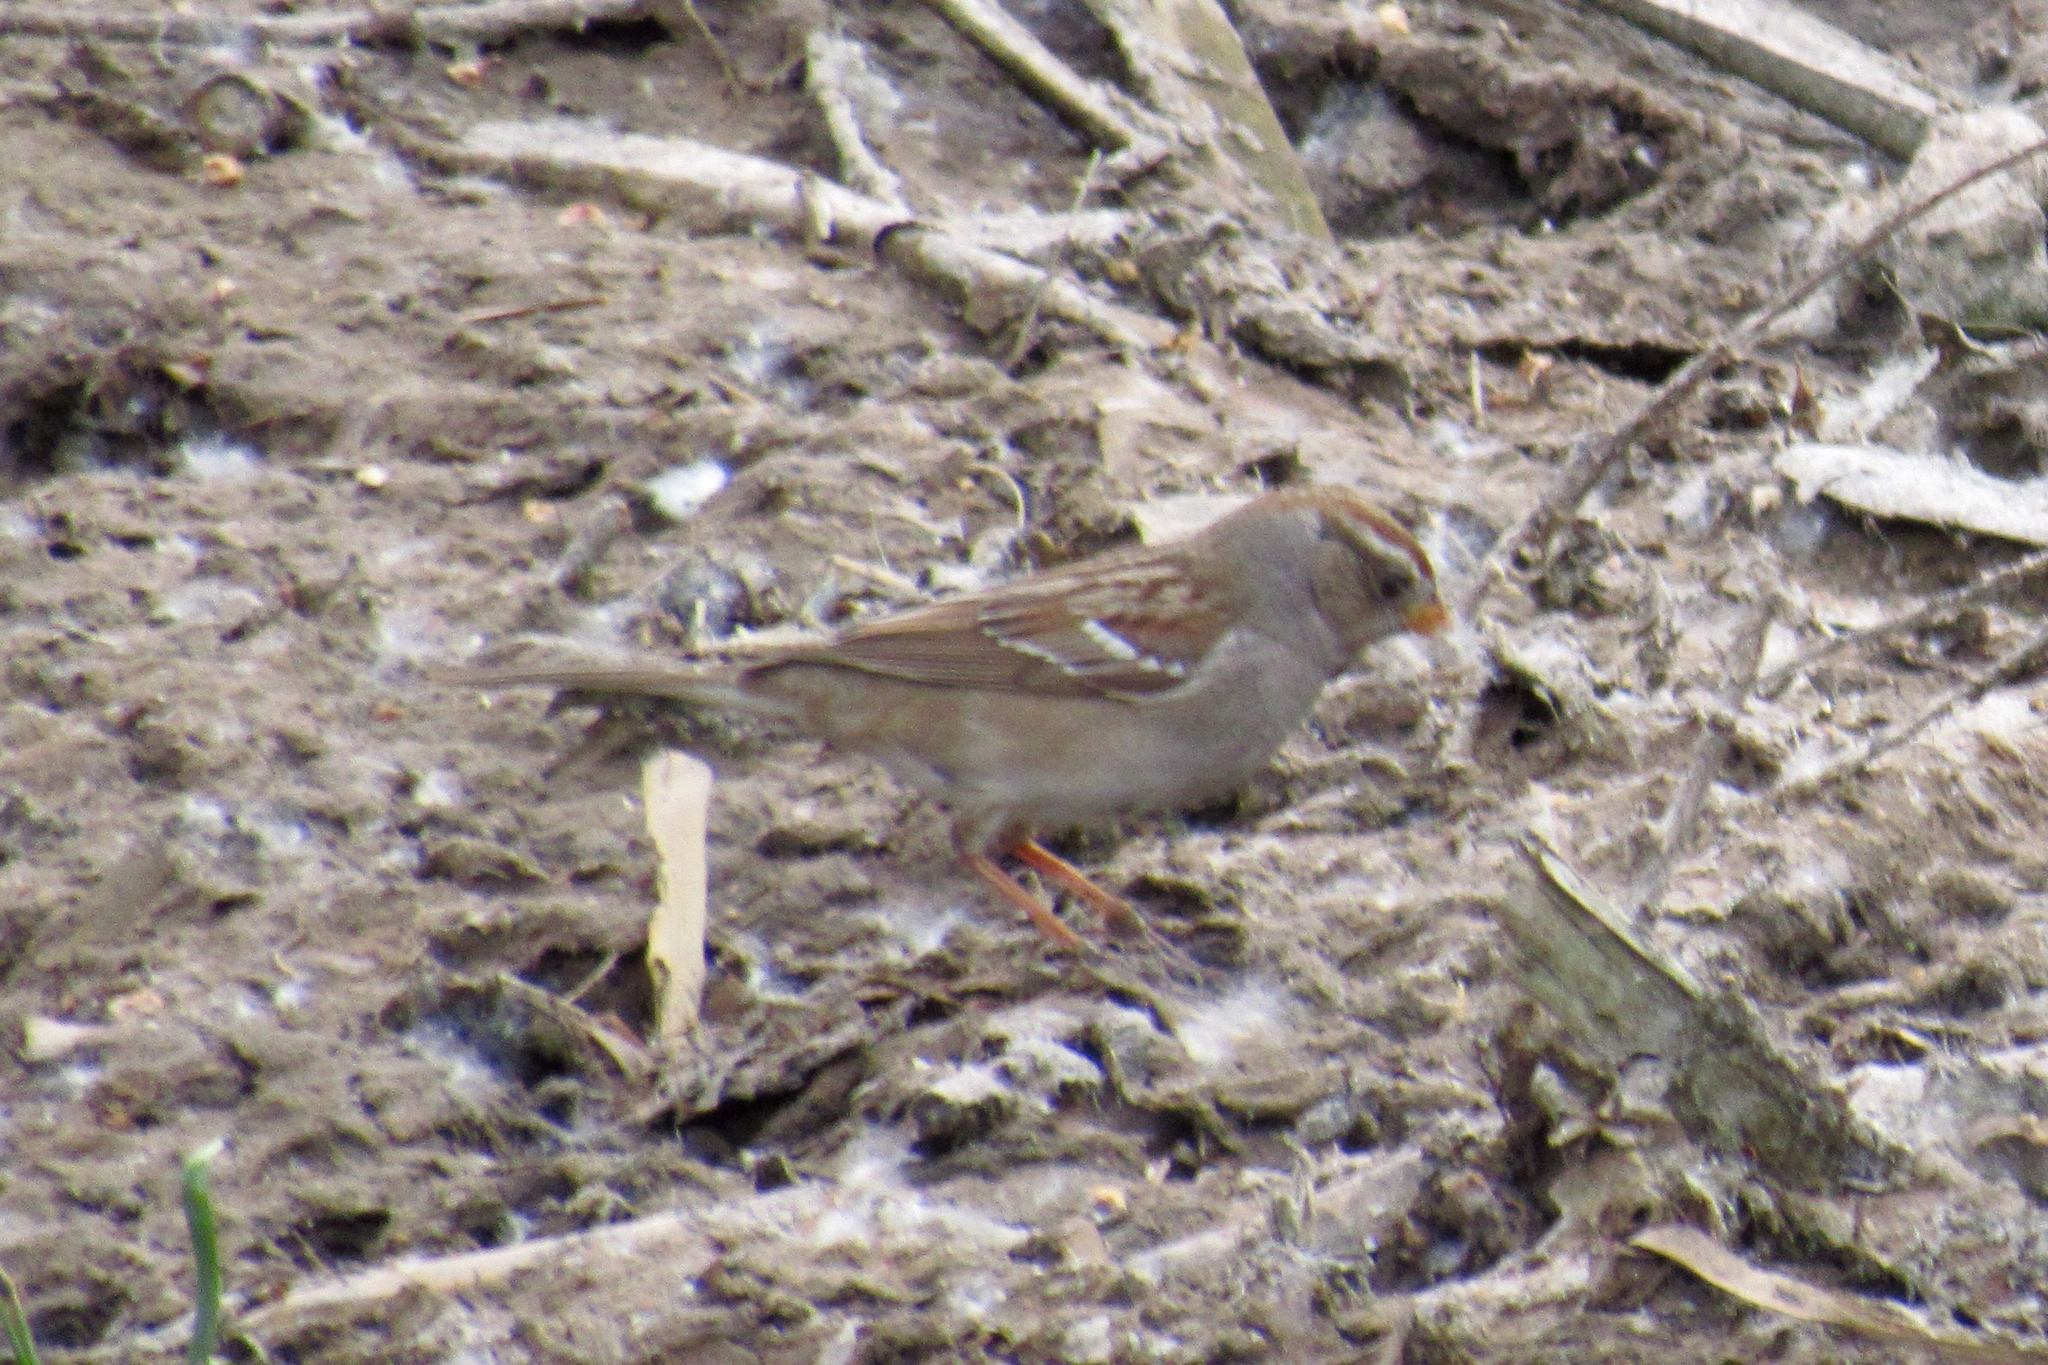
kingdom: Animalia
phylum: Chordata
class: Aves
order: Passeriformes
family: Passerellidae
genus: Zonotrichia
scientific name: Zonotrichia leucophrys
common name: White-crowned sparrow
